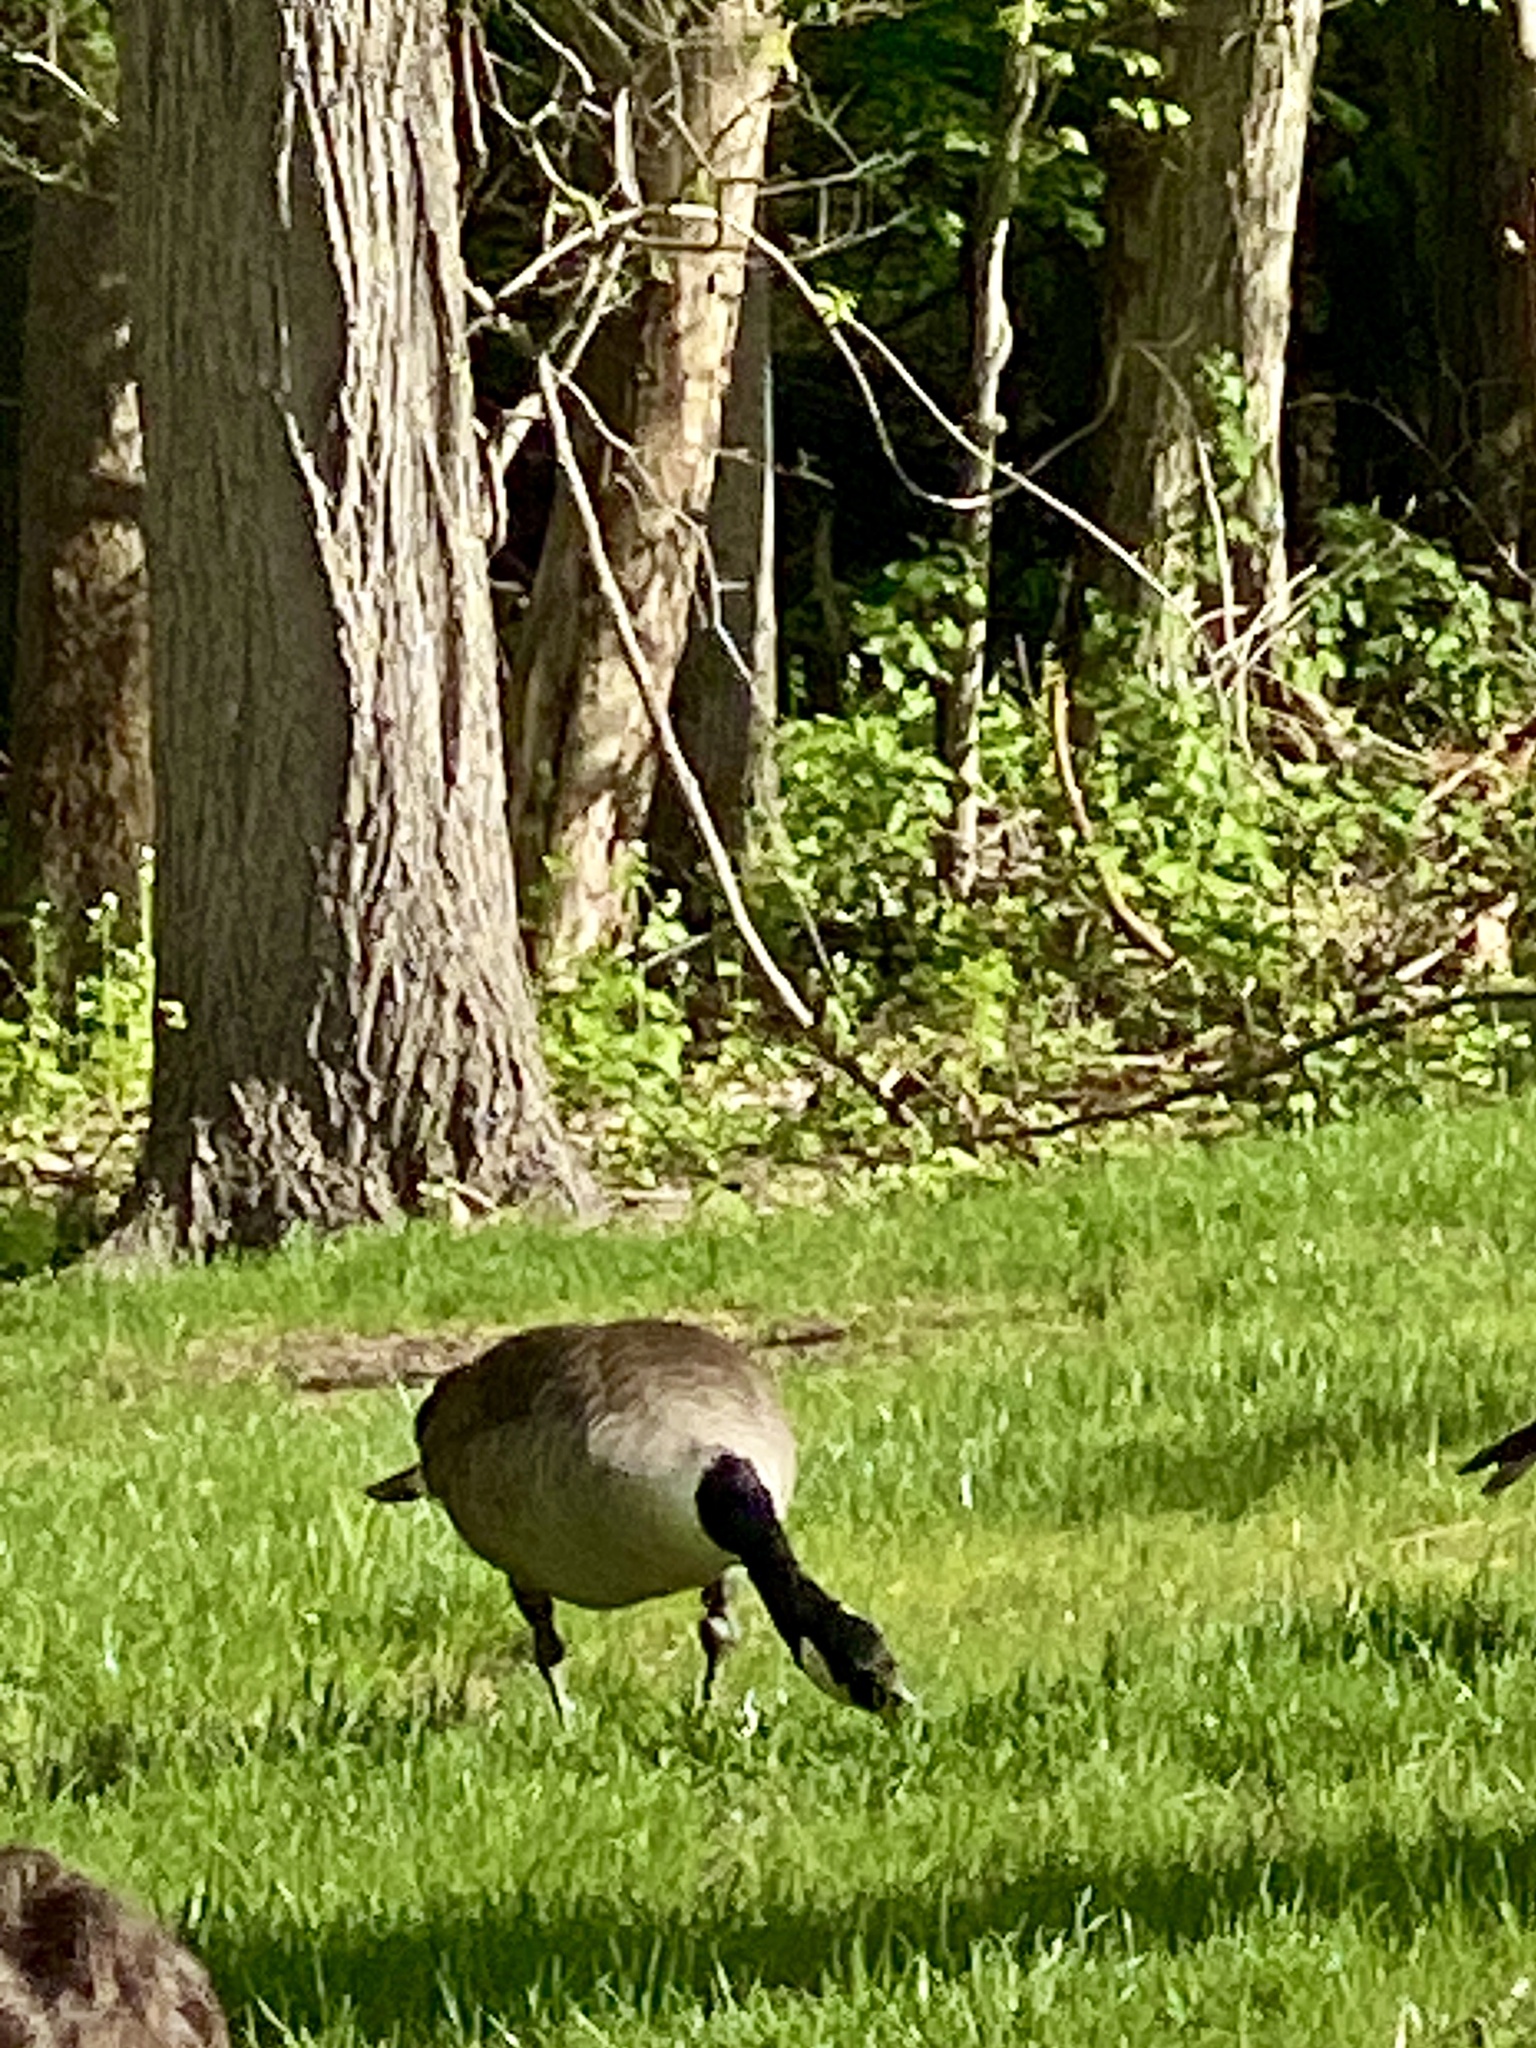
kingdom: Animalia
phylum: Chordata
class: Aves
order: Anseriformes
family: Anatidae
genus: Branta
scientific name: Branta canadensis
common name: Canada goose
